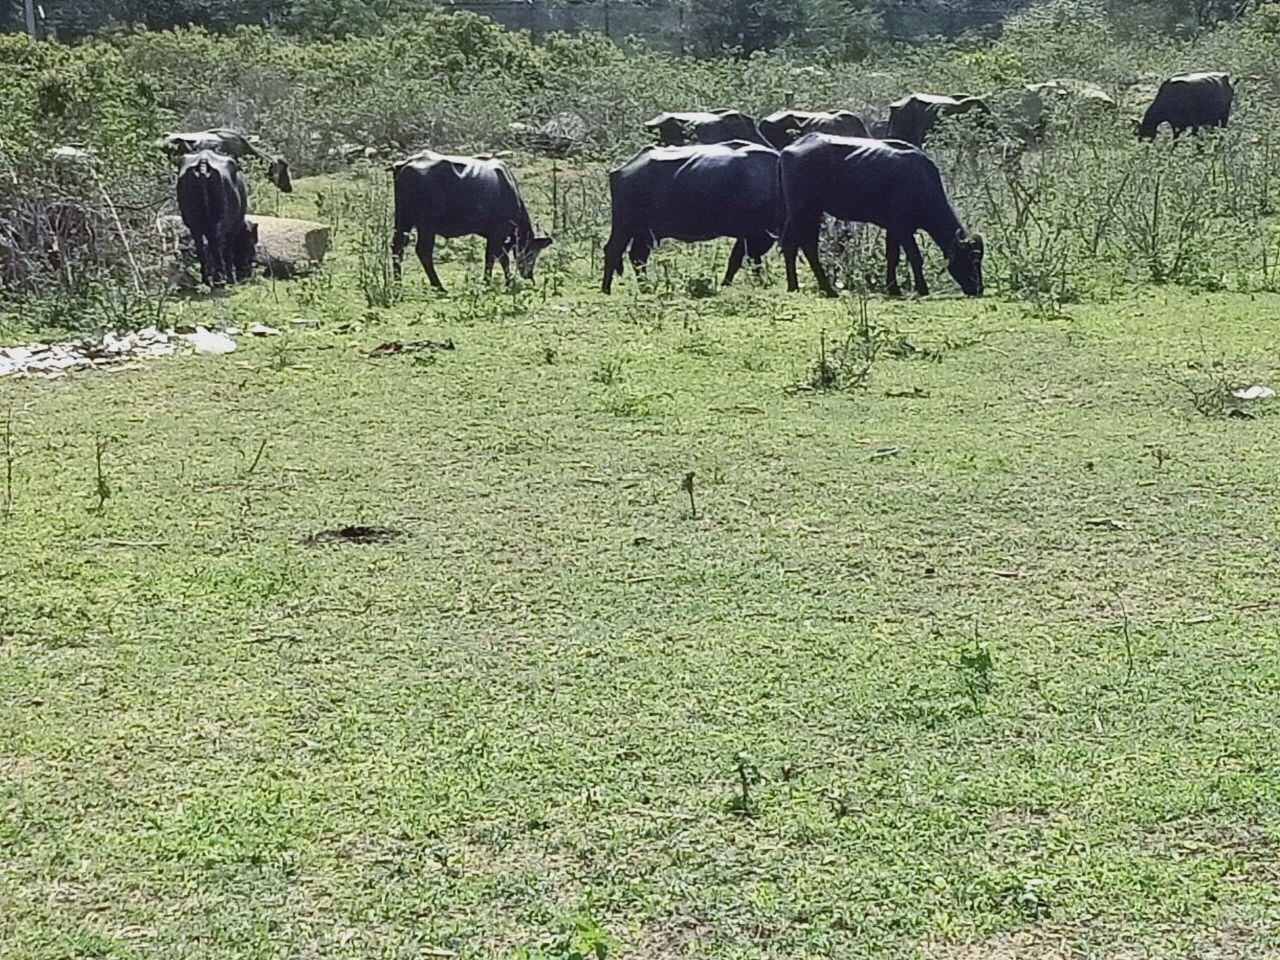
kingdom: Animalia
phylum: Chordata
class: Mammalia
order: Artiodactyla
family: Bovidae
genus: Bubalus
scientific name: Bubalus bubalis
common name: Water buffalo
